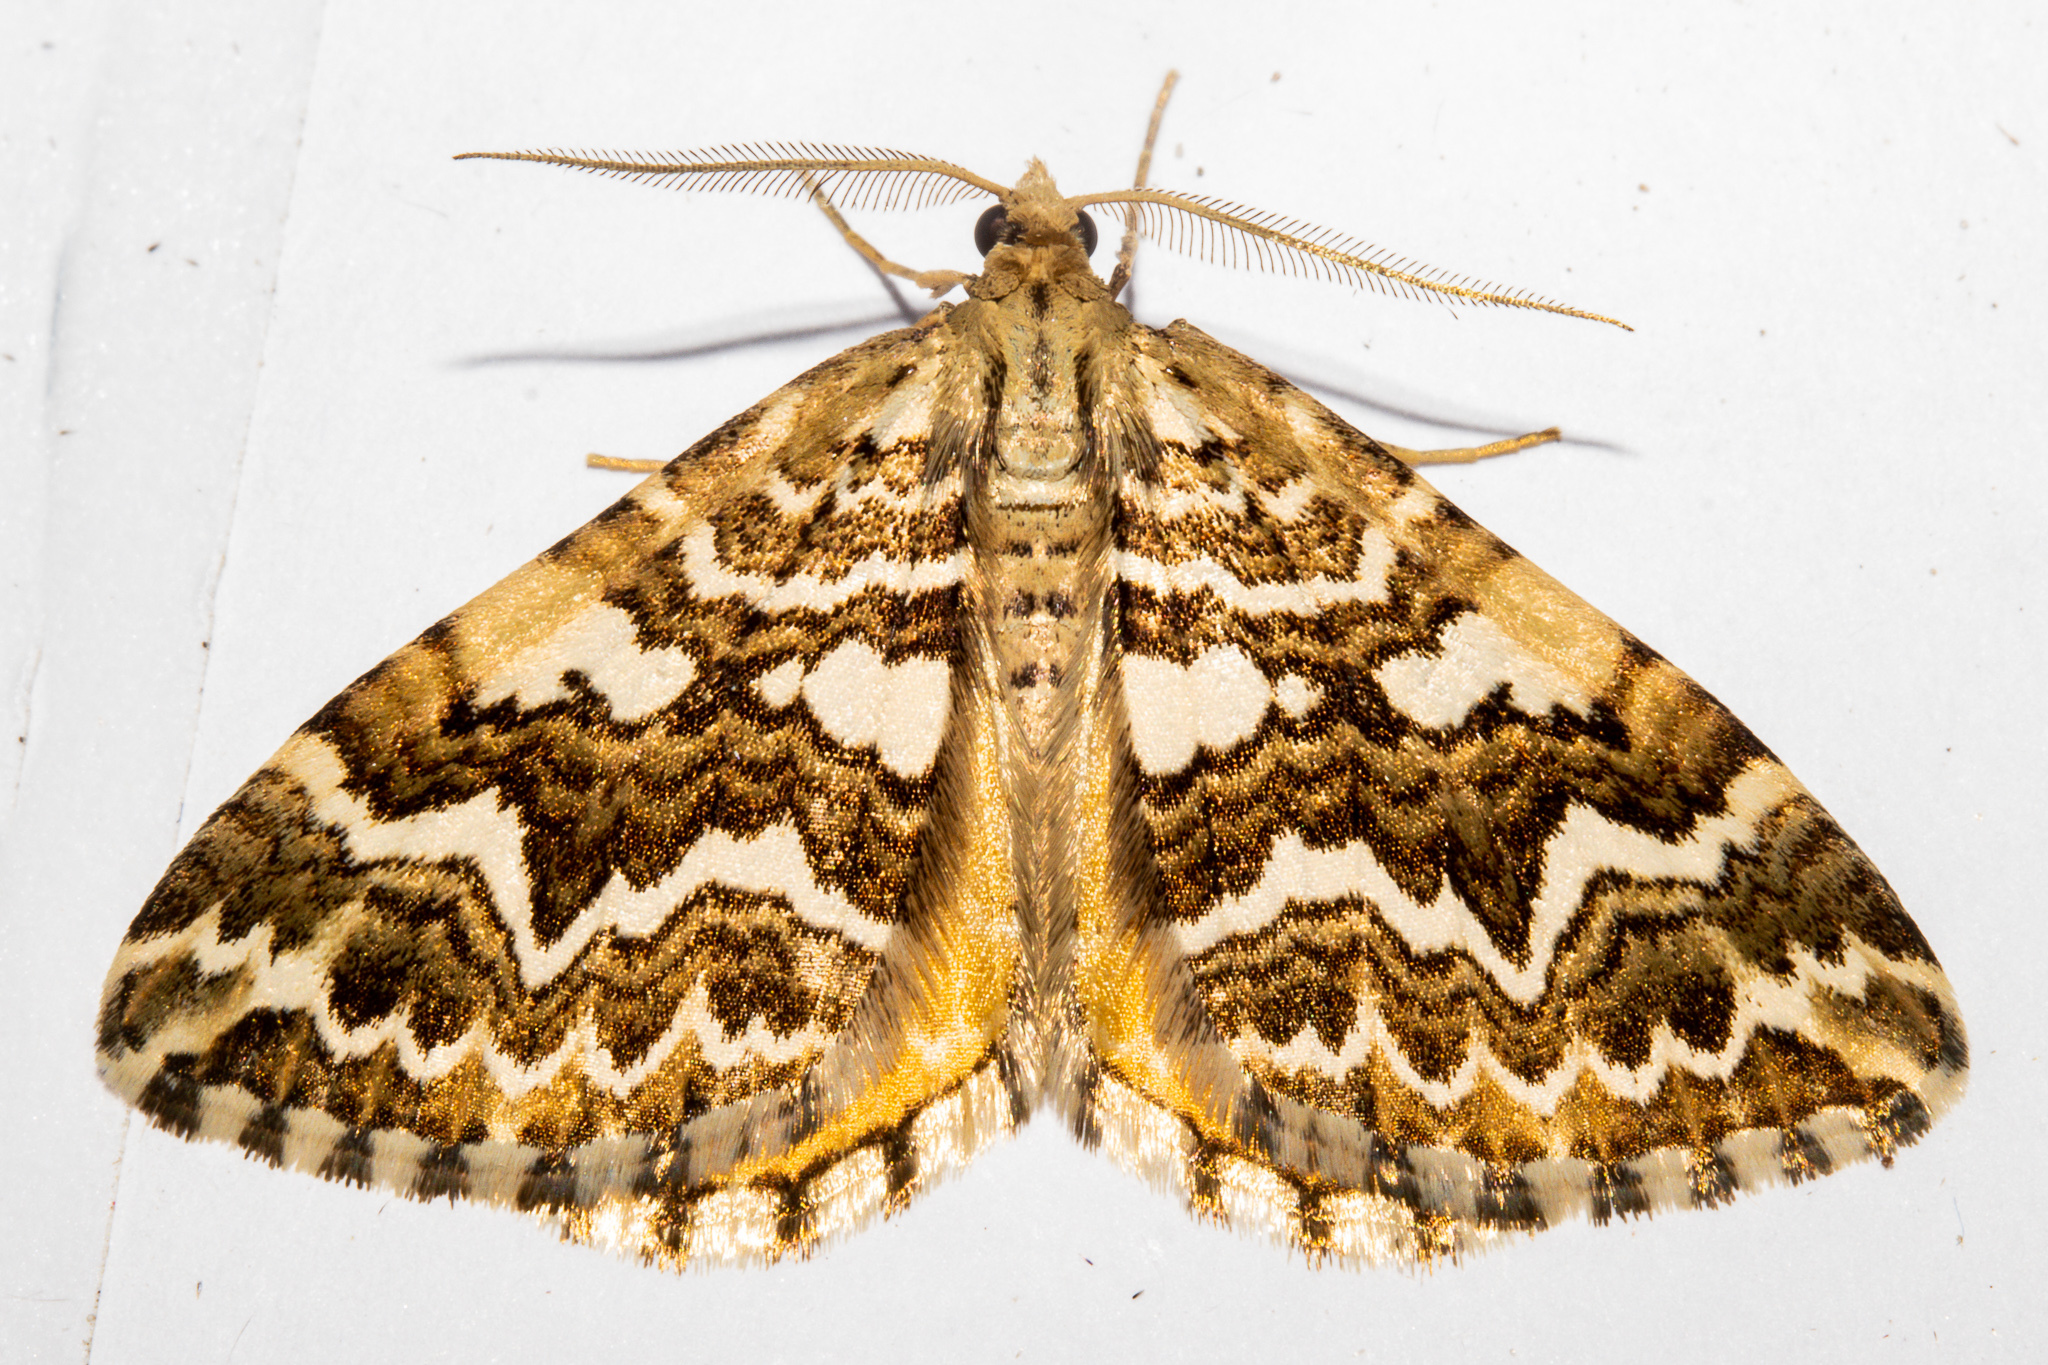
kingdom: Animalia
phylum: Arthropoda
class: Insecta
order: Lepidoptera
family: Geometridae
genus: Asaphodes
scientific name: Asaphodes clarata
